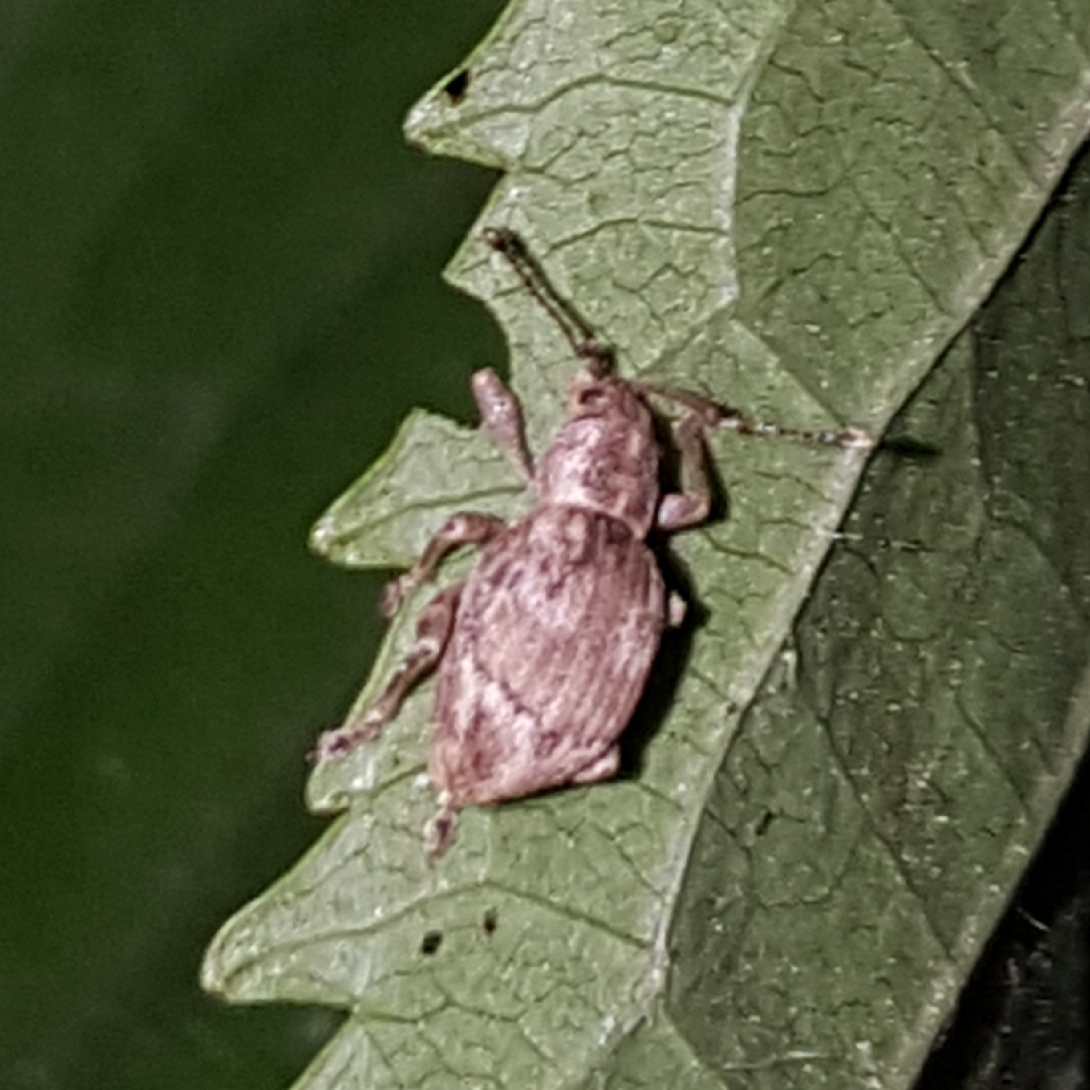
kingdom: Animalia
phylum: Arthropoda
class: Insecta
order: Coleoptera
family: Curculionidae
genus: Sciopithes
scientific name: Sciopithes obscurus
